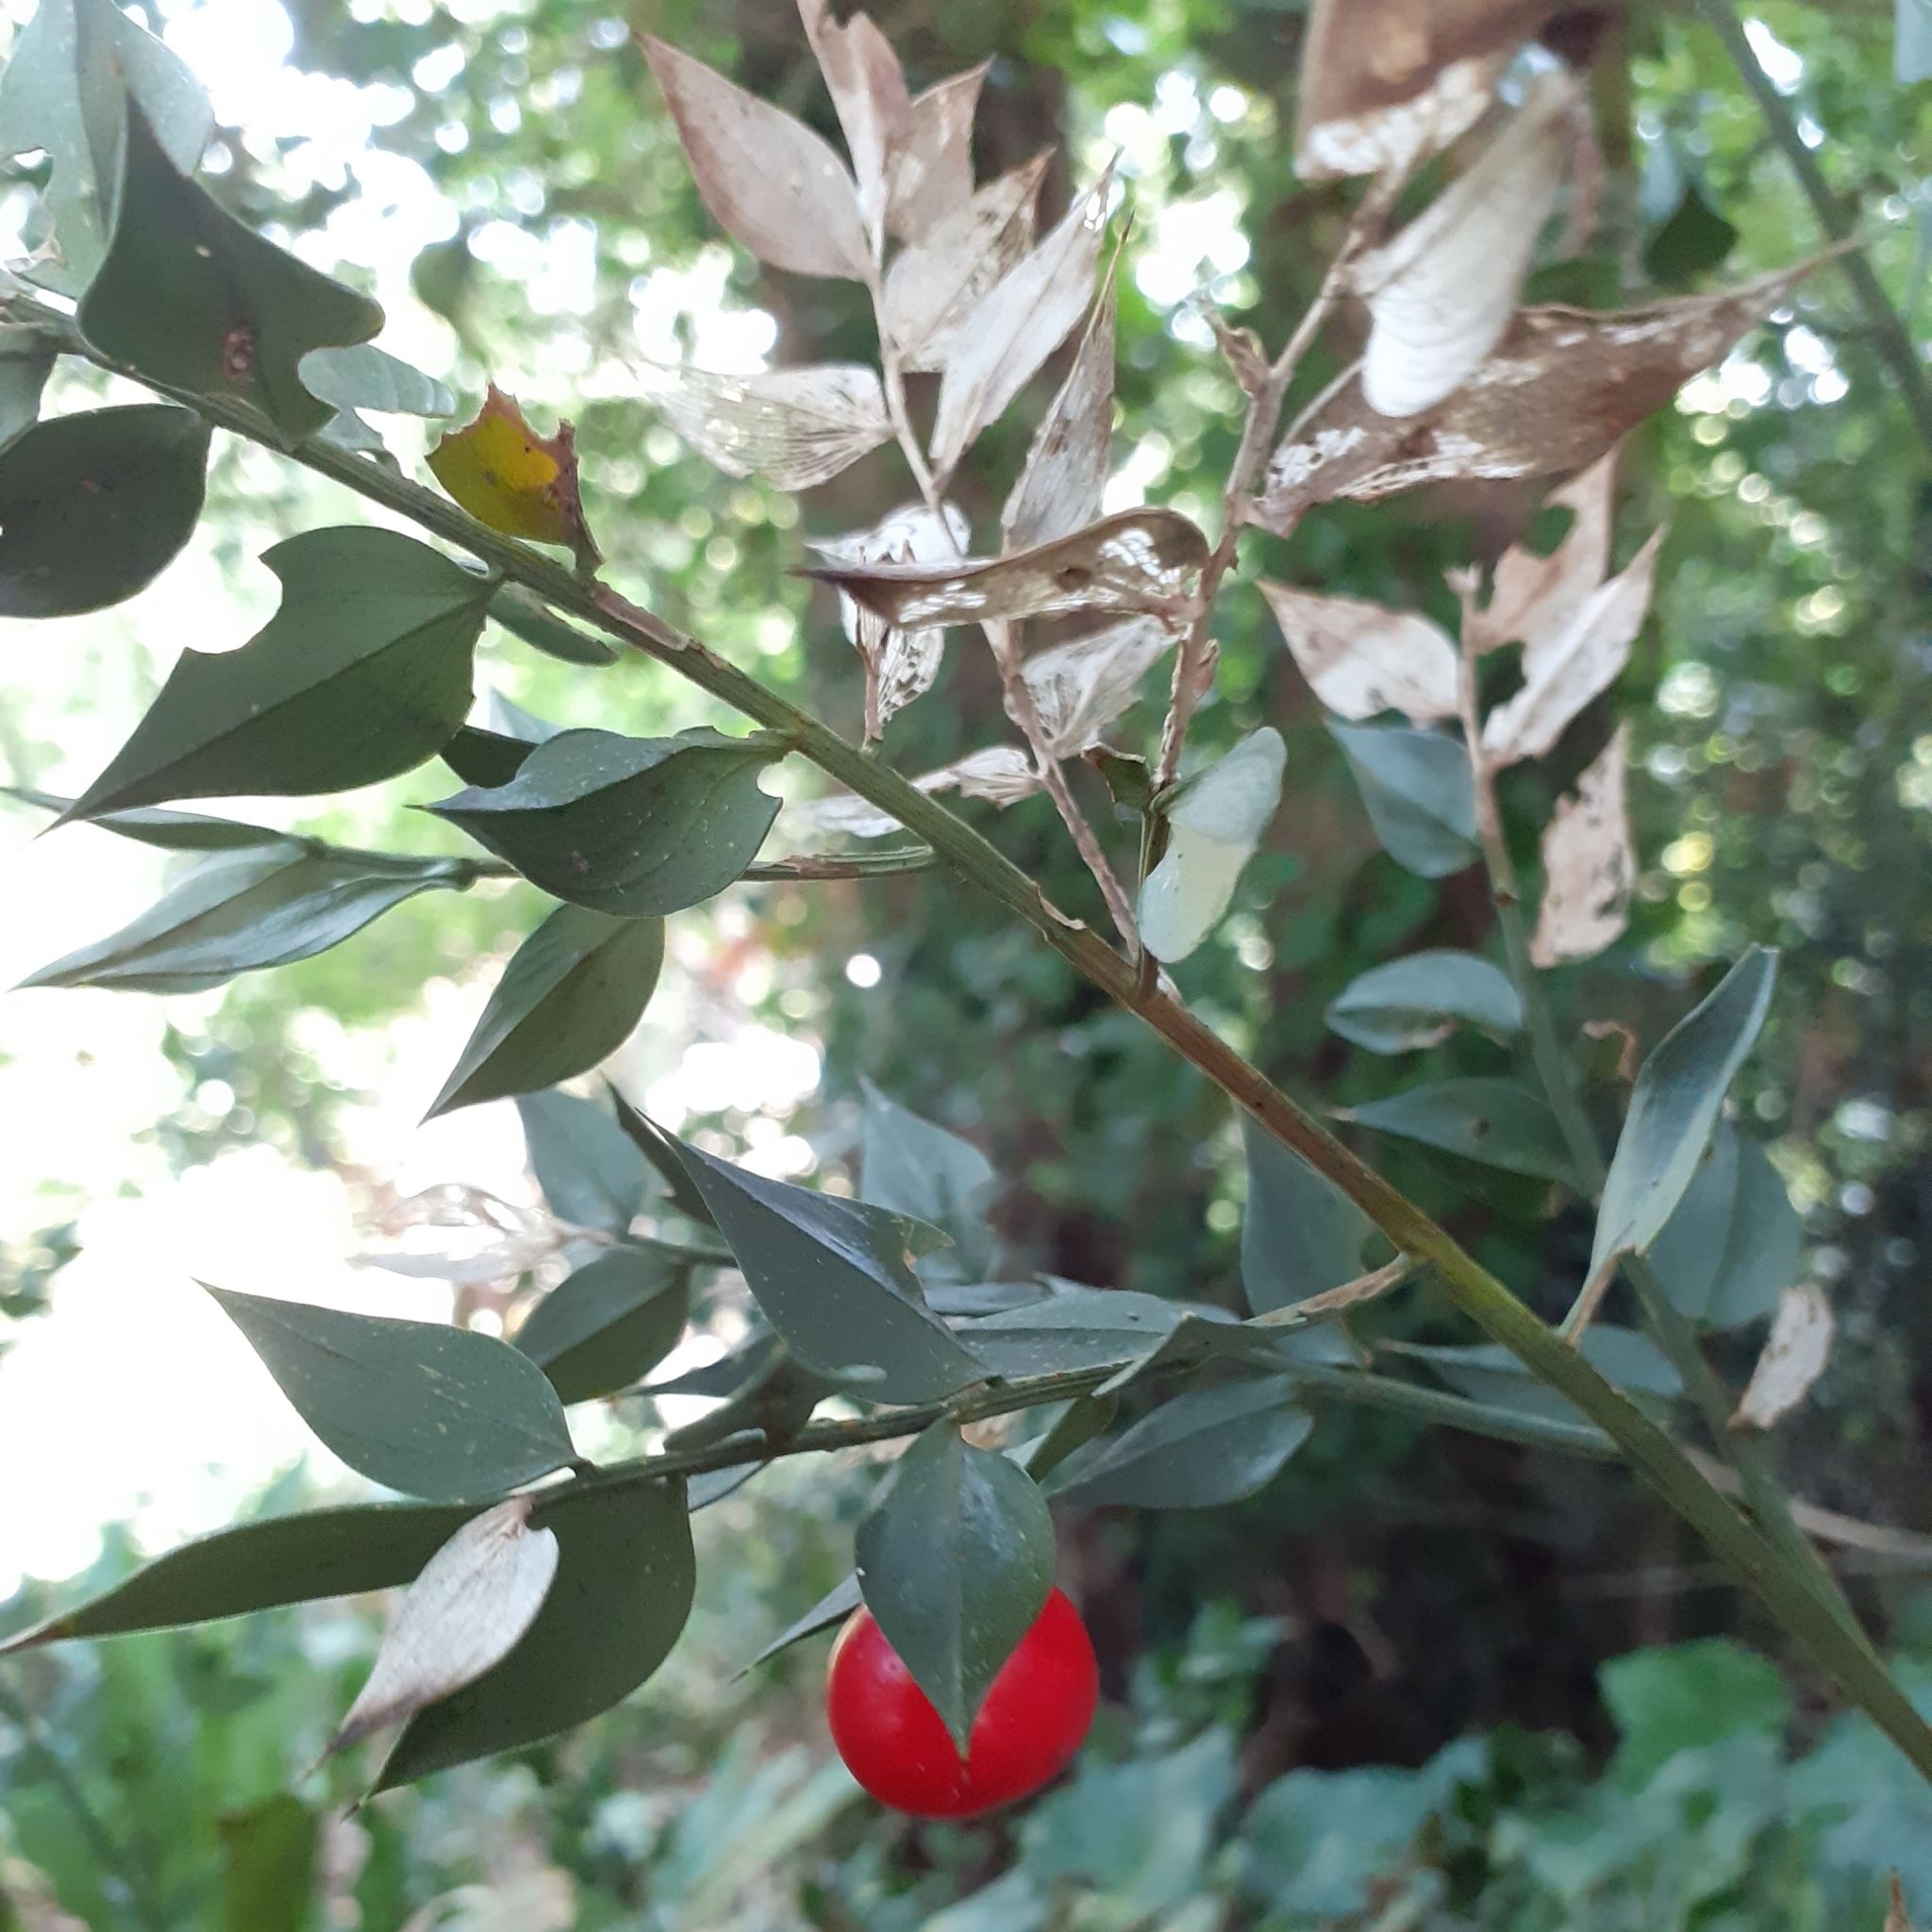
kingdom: Plantae
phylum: Tracheophyta
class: Liliopsida
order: Asparagales
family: Asparagaceae
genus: Ruscus
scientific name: Ruscus aculeatus
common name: Butcher's-broom
